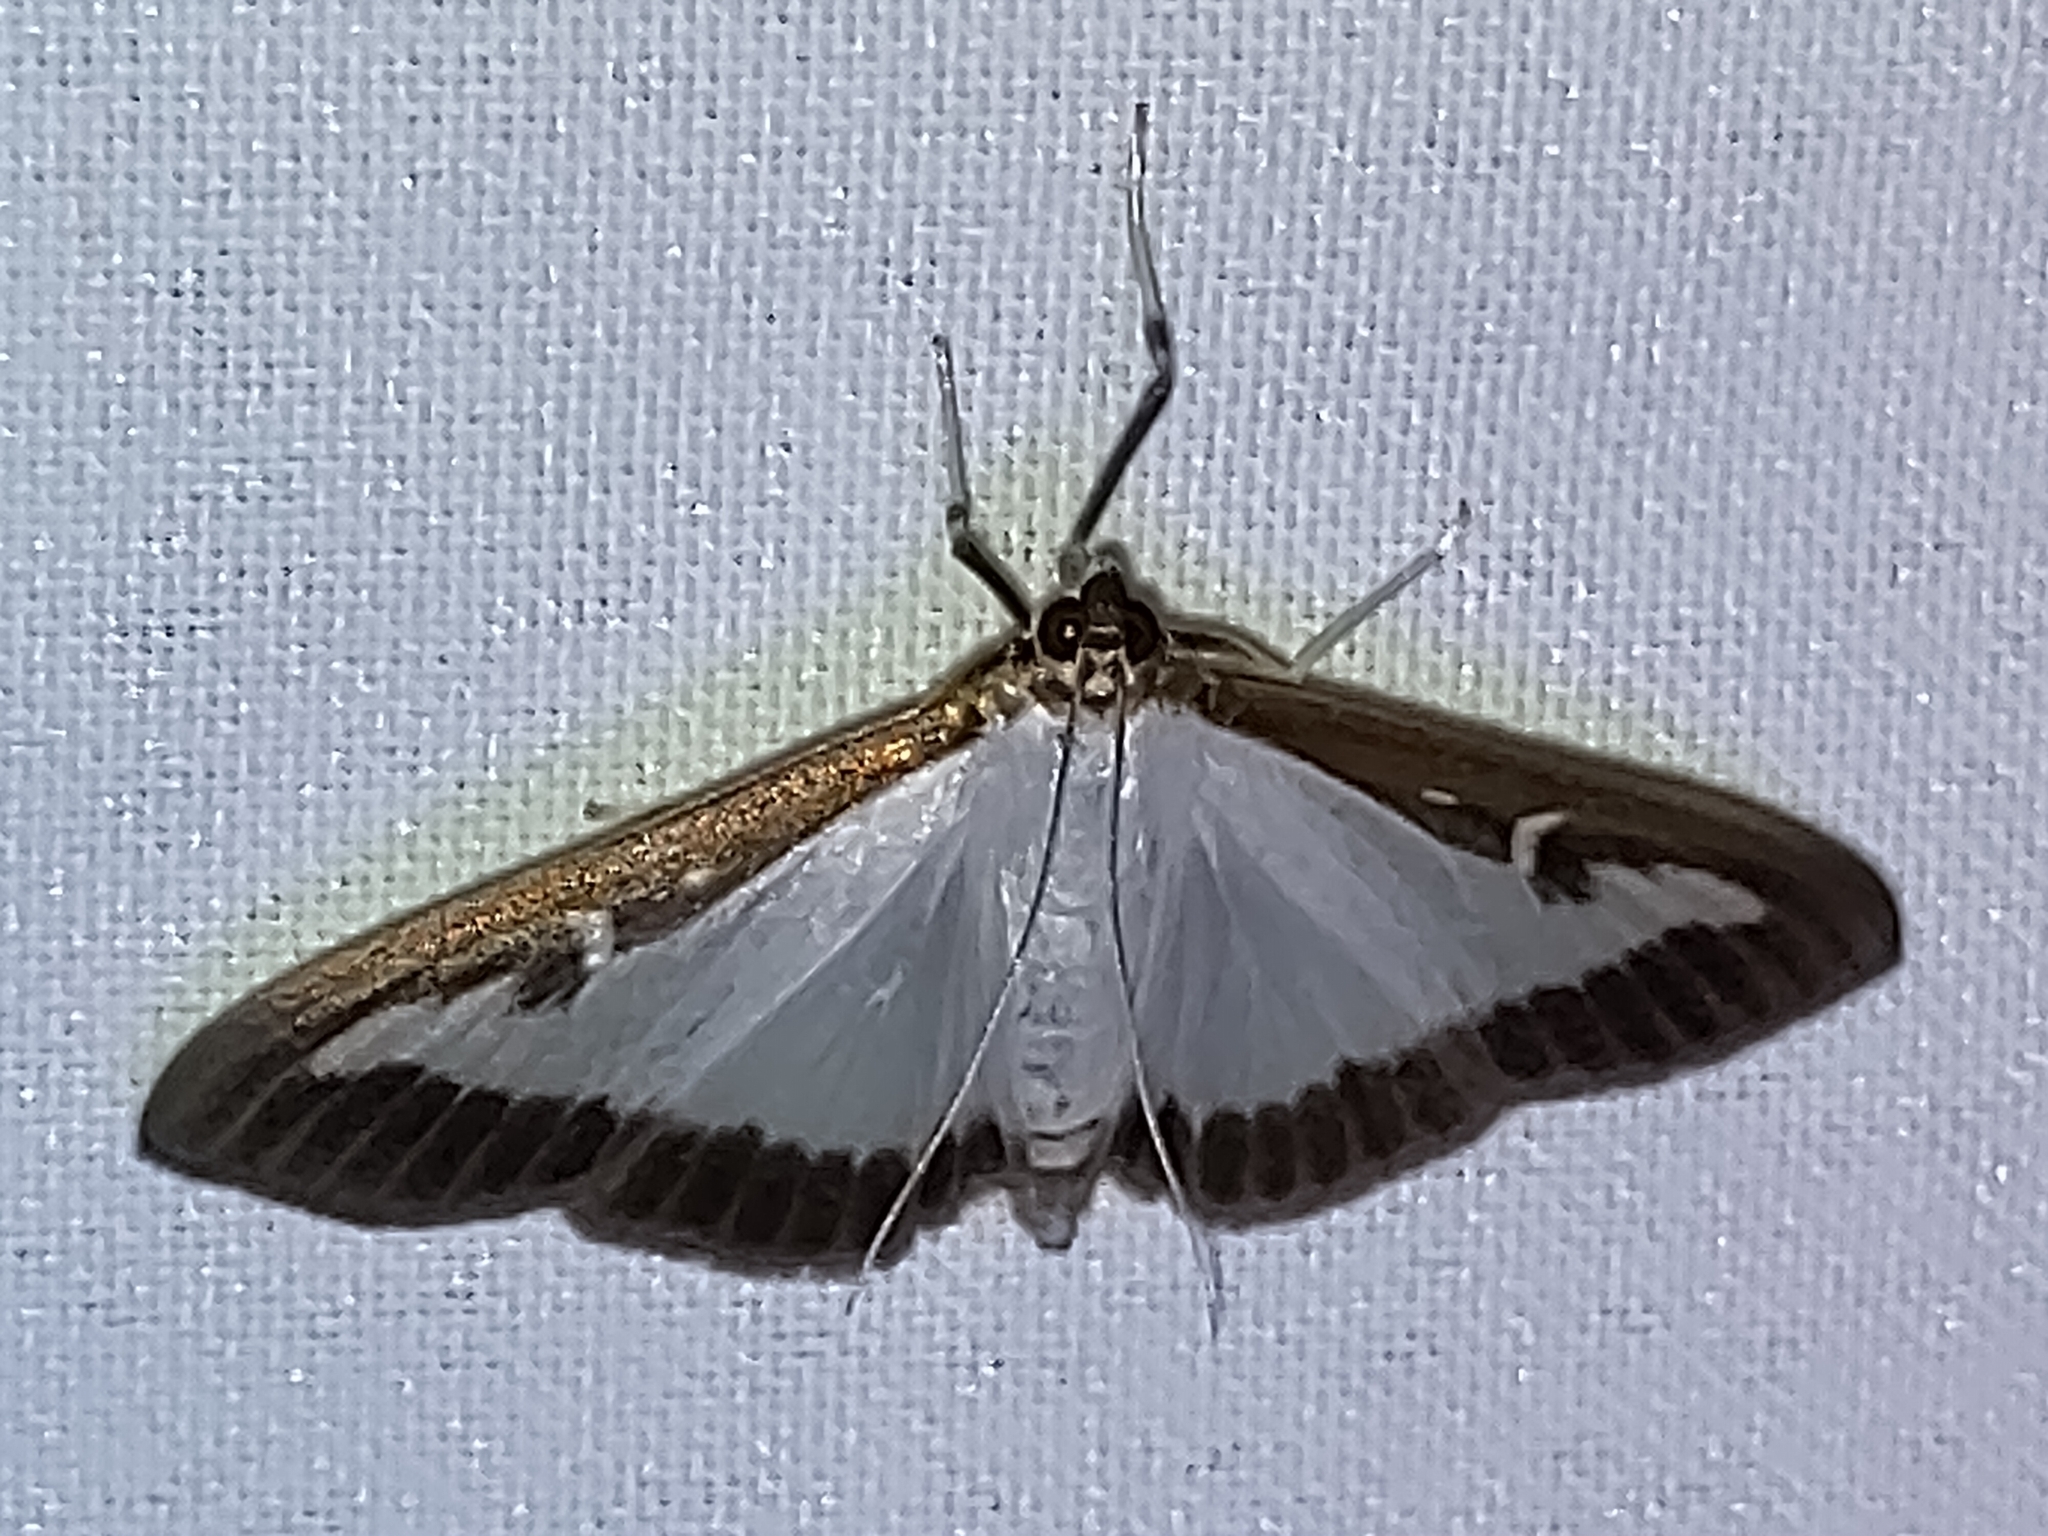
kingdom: Animalia
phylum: Arthropoda
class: Insecta
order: Lepidoptera
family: Crambidae
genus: Cydalima
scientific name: Cydalima perspectalis
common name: Box tree moth
